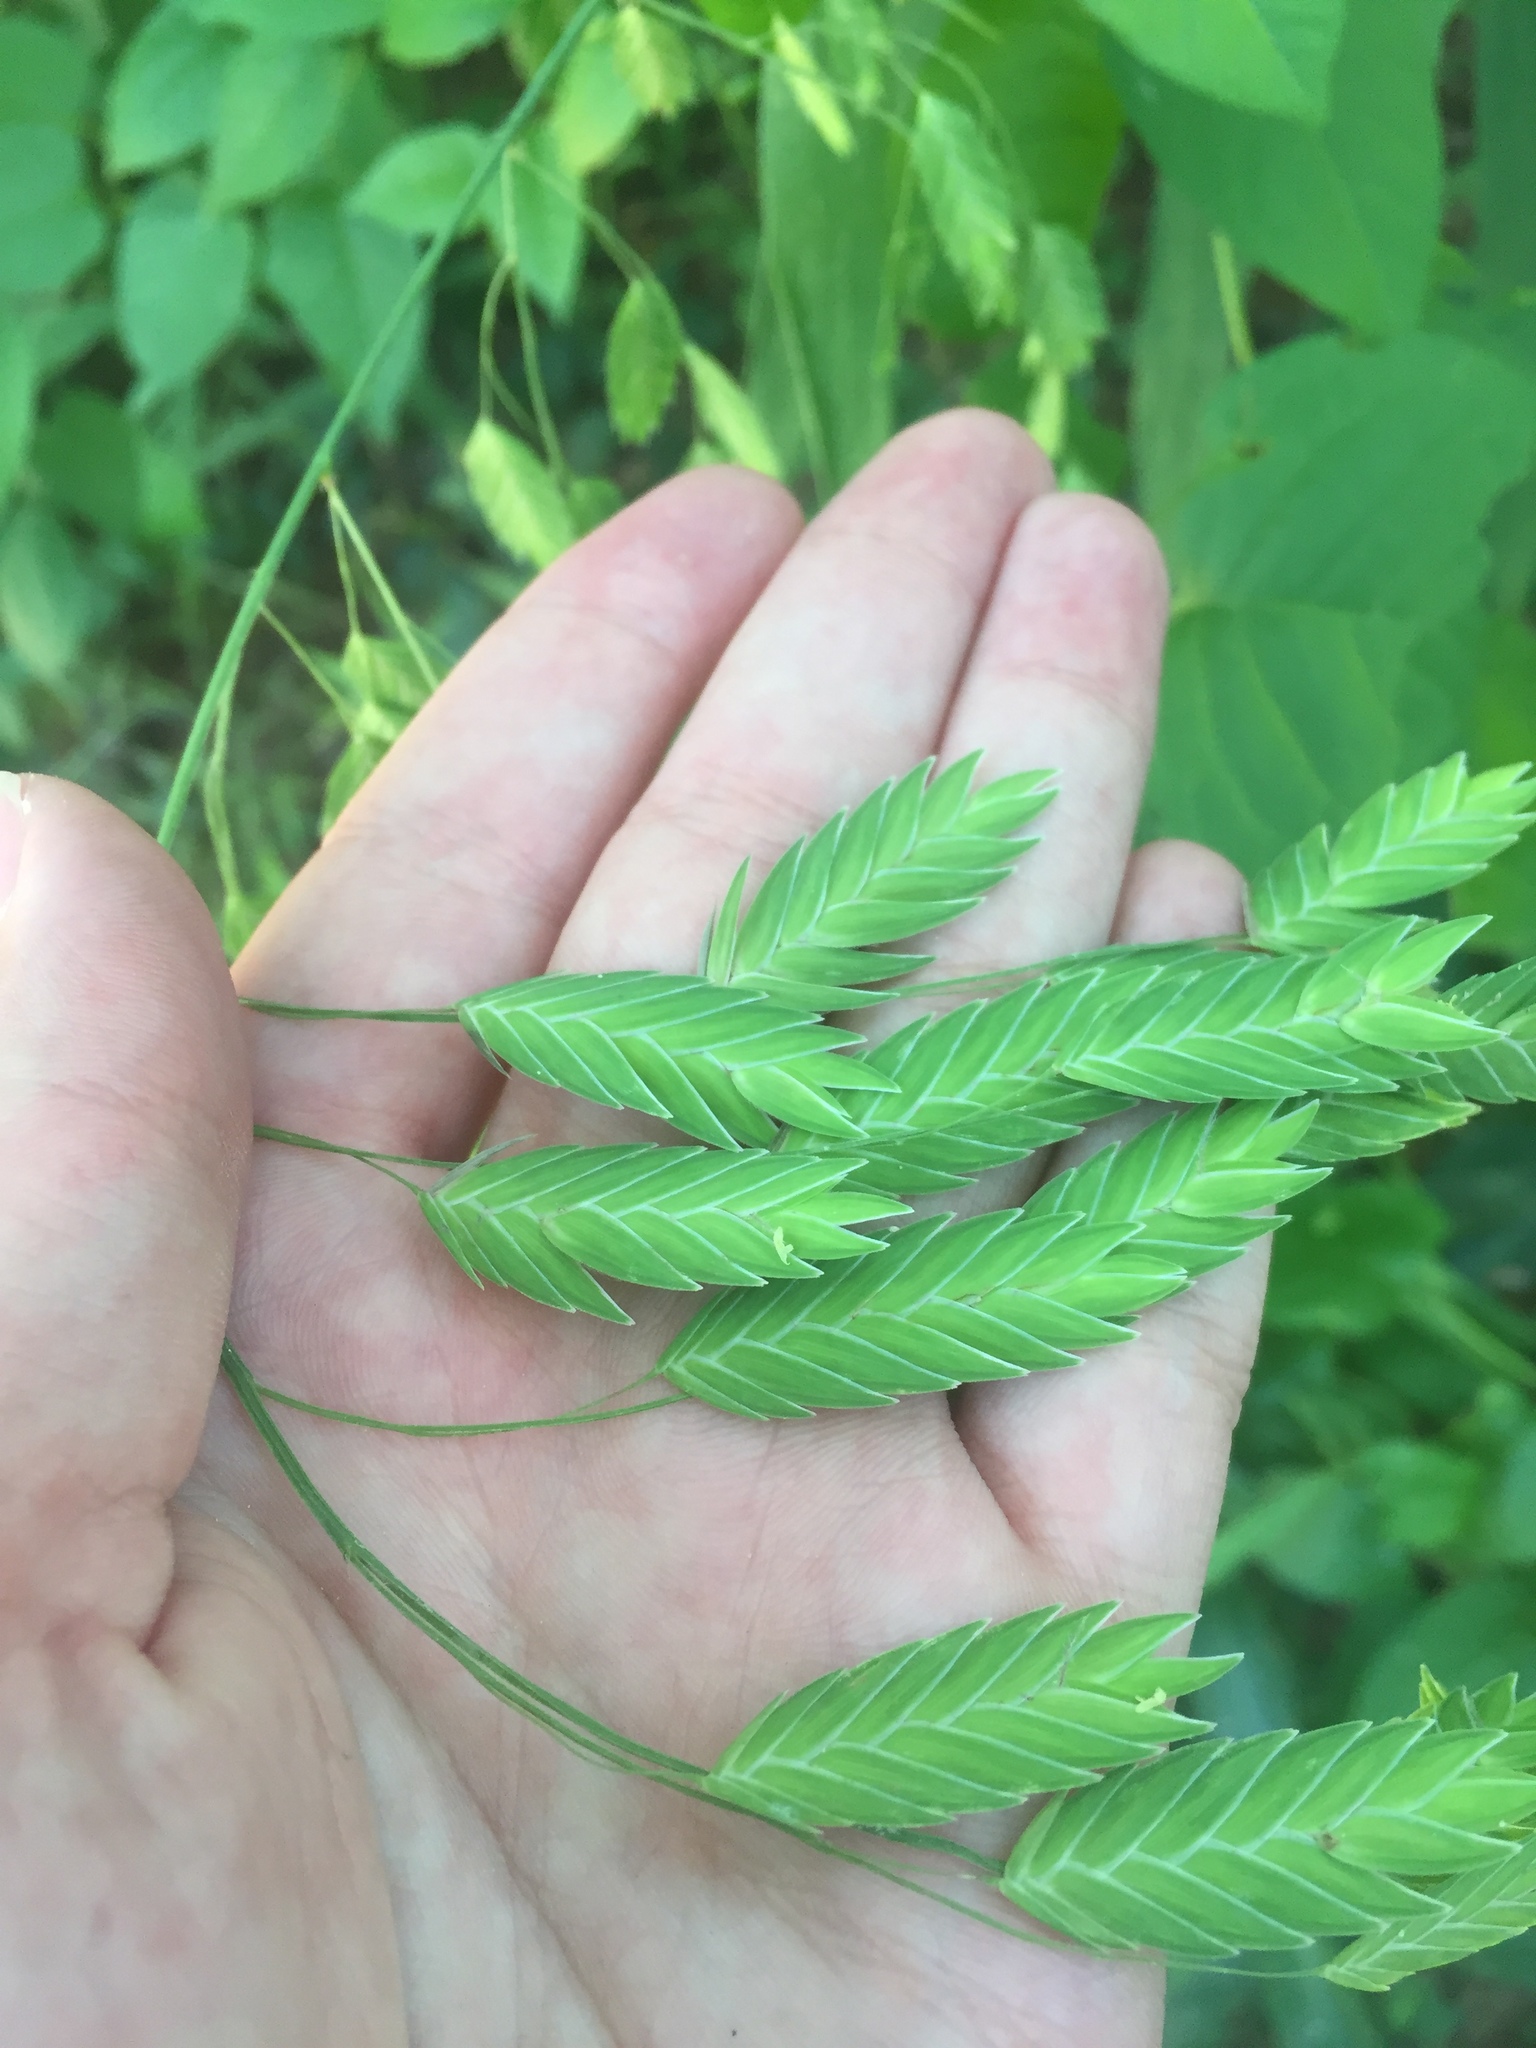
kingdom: Plantae
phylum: Tracheophyta
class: Liliopsida
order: Poales
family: Poaceae
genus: Chasmanthium
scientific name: Chasmanthium latifolium
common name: Broad-leaved chasmanthium
